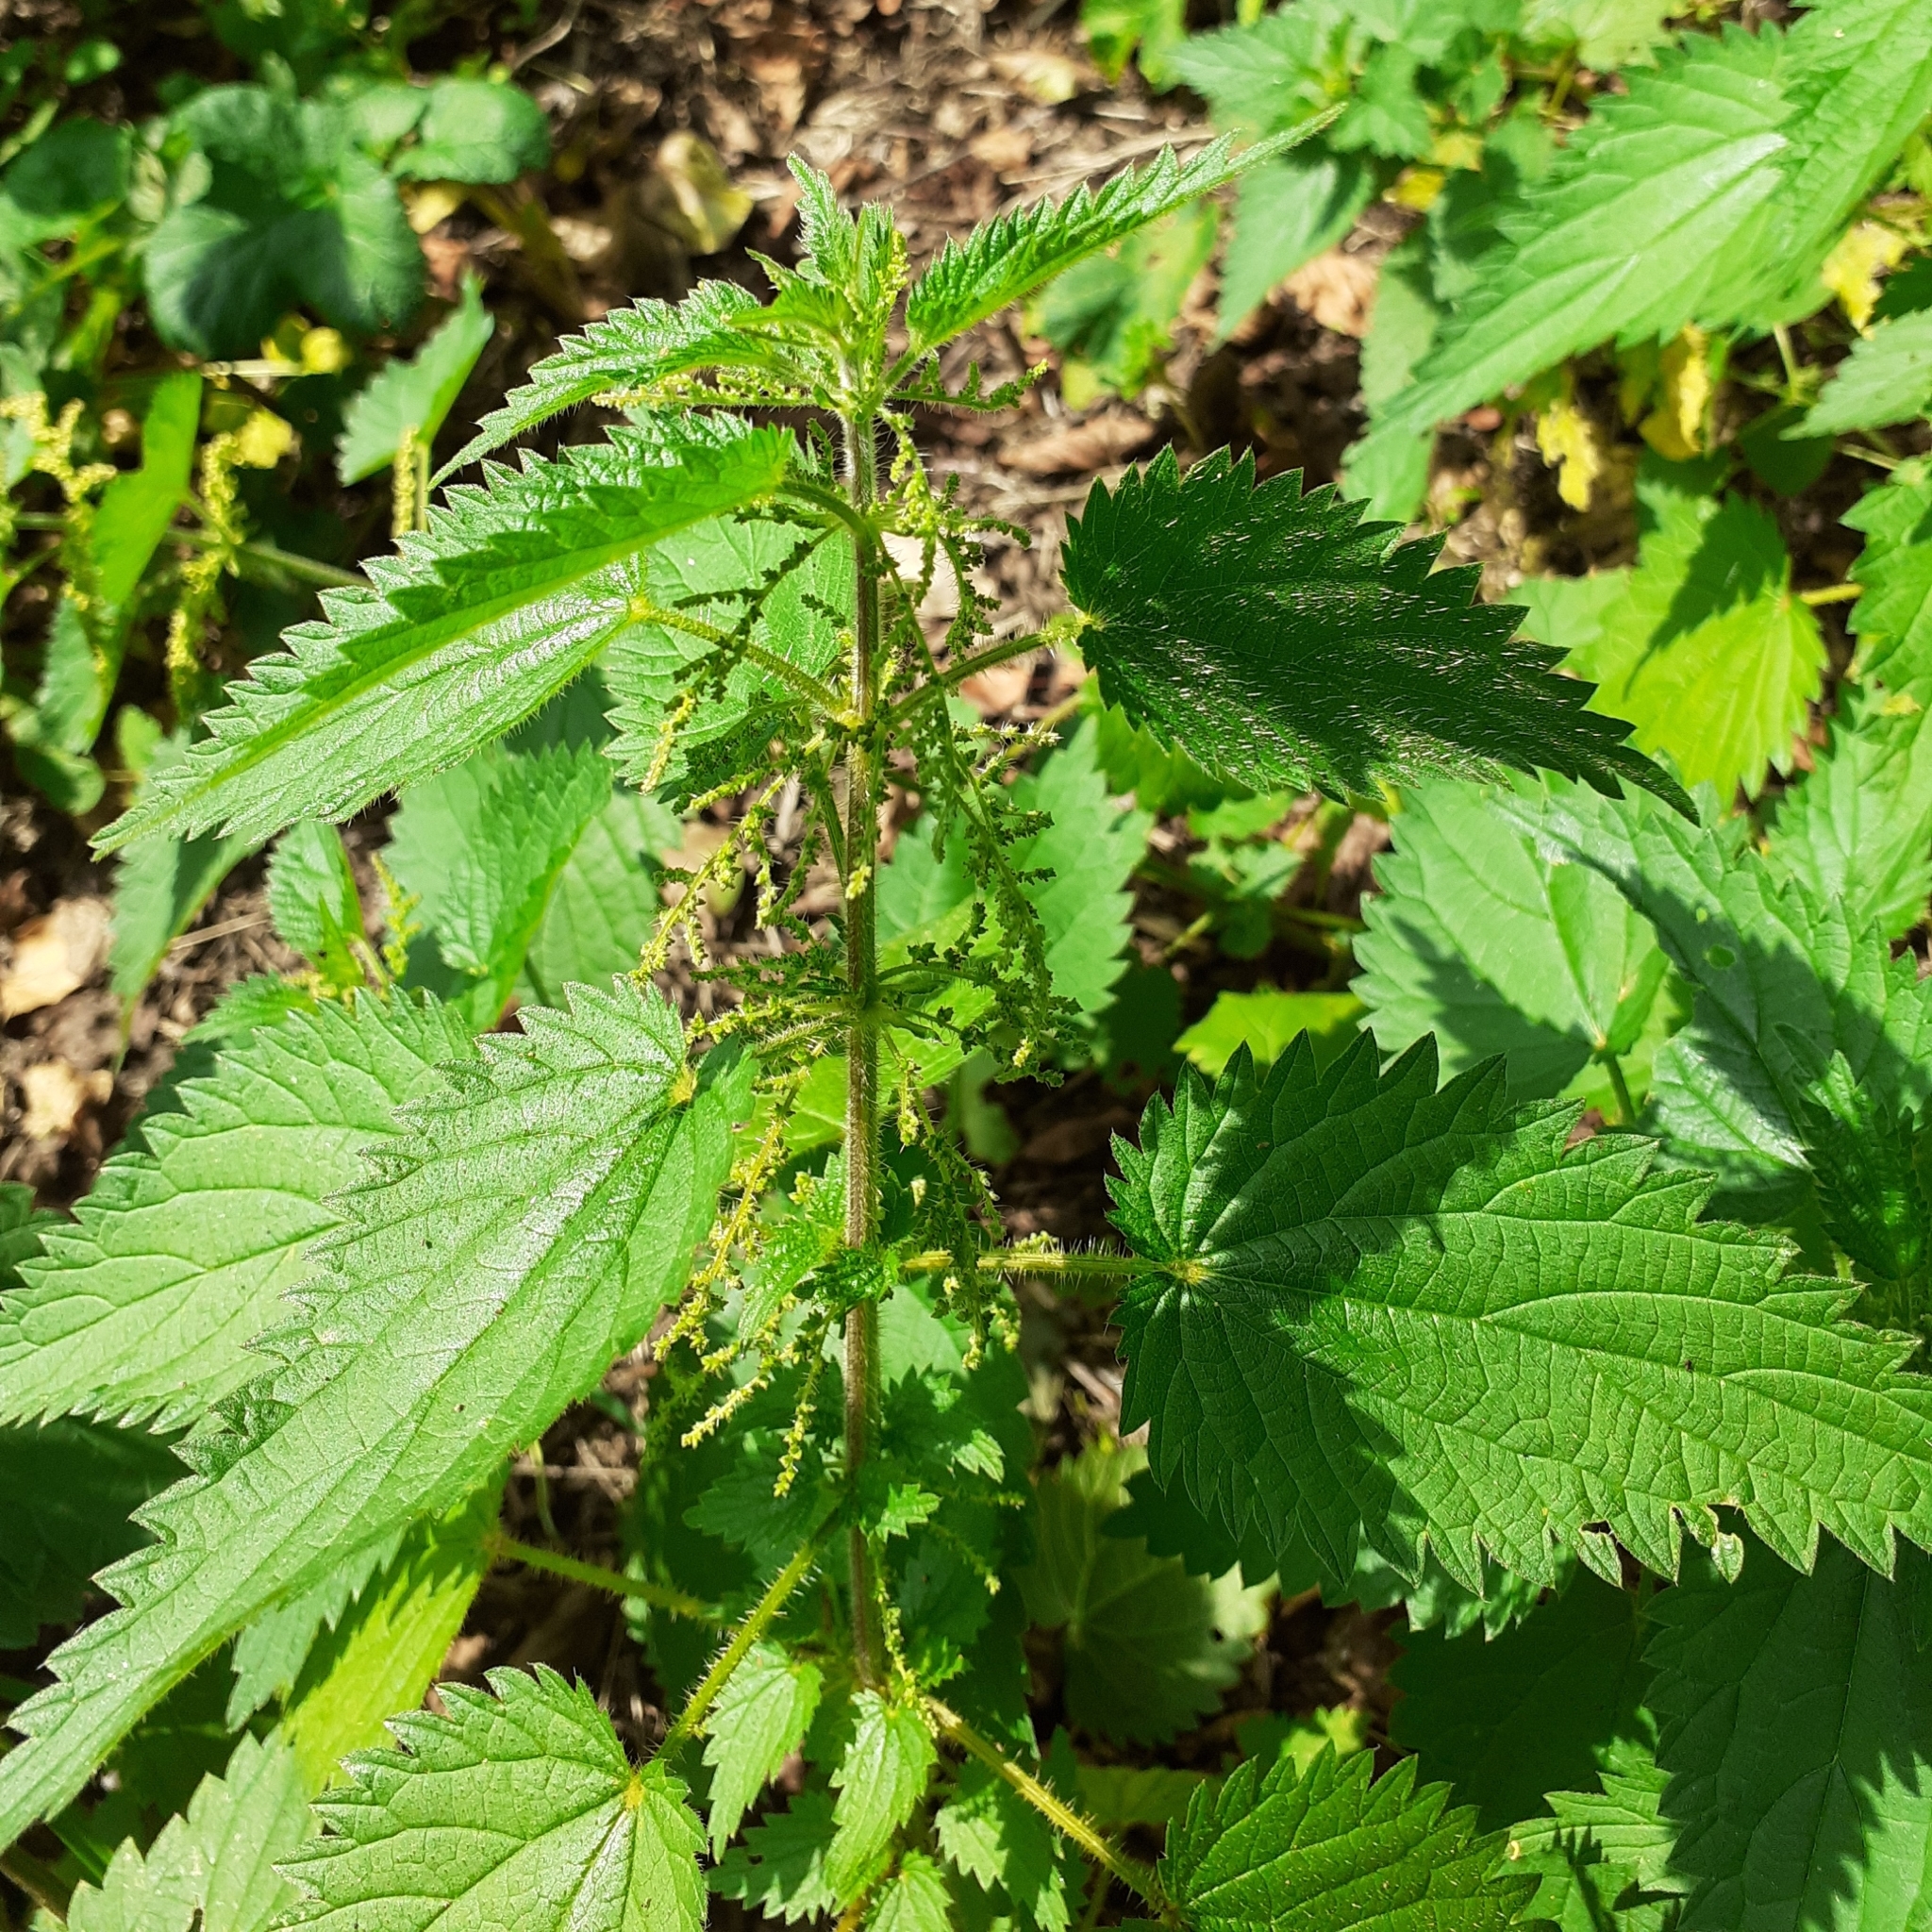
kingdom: Plantae
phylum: Tracheophyta
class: Magnoliopsida
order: Rosales
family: Urticaceae
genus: Urtica
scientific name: Urtica dioica
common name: Common nettle
